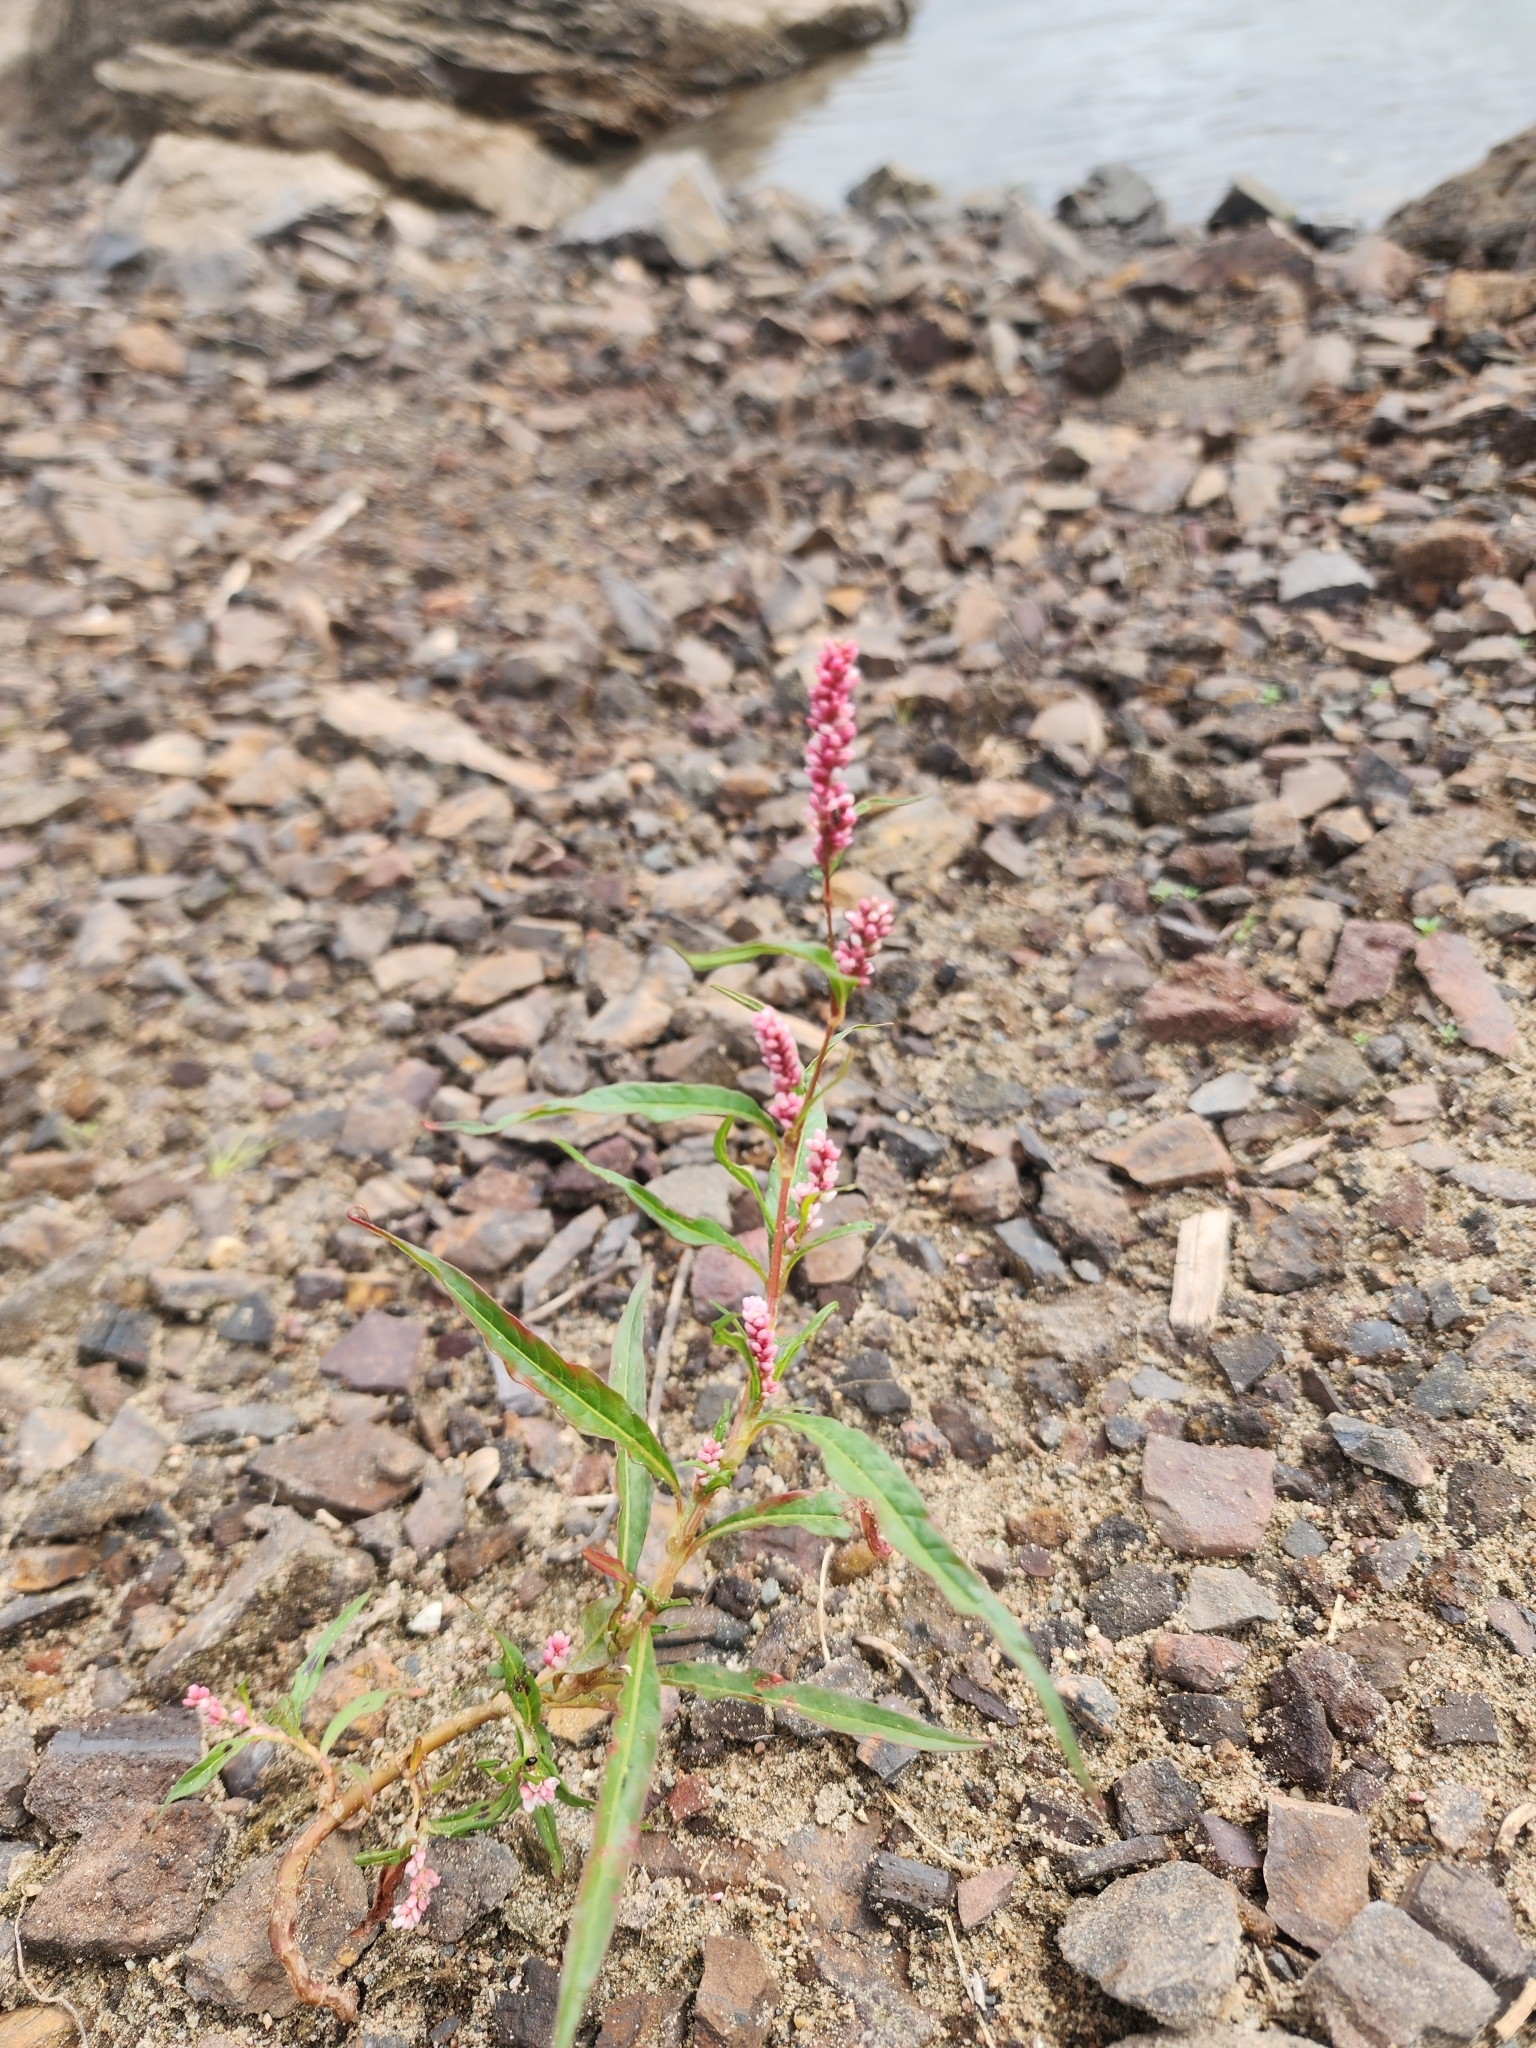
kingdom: Plantae
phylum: Tracheophyta
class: Magnoliopsida
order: Caryophyllales
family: Polygonaceae
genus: Persicaria
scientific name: Persicaria maculosa
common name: Redshank
